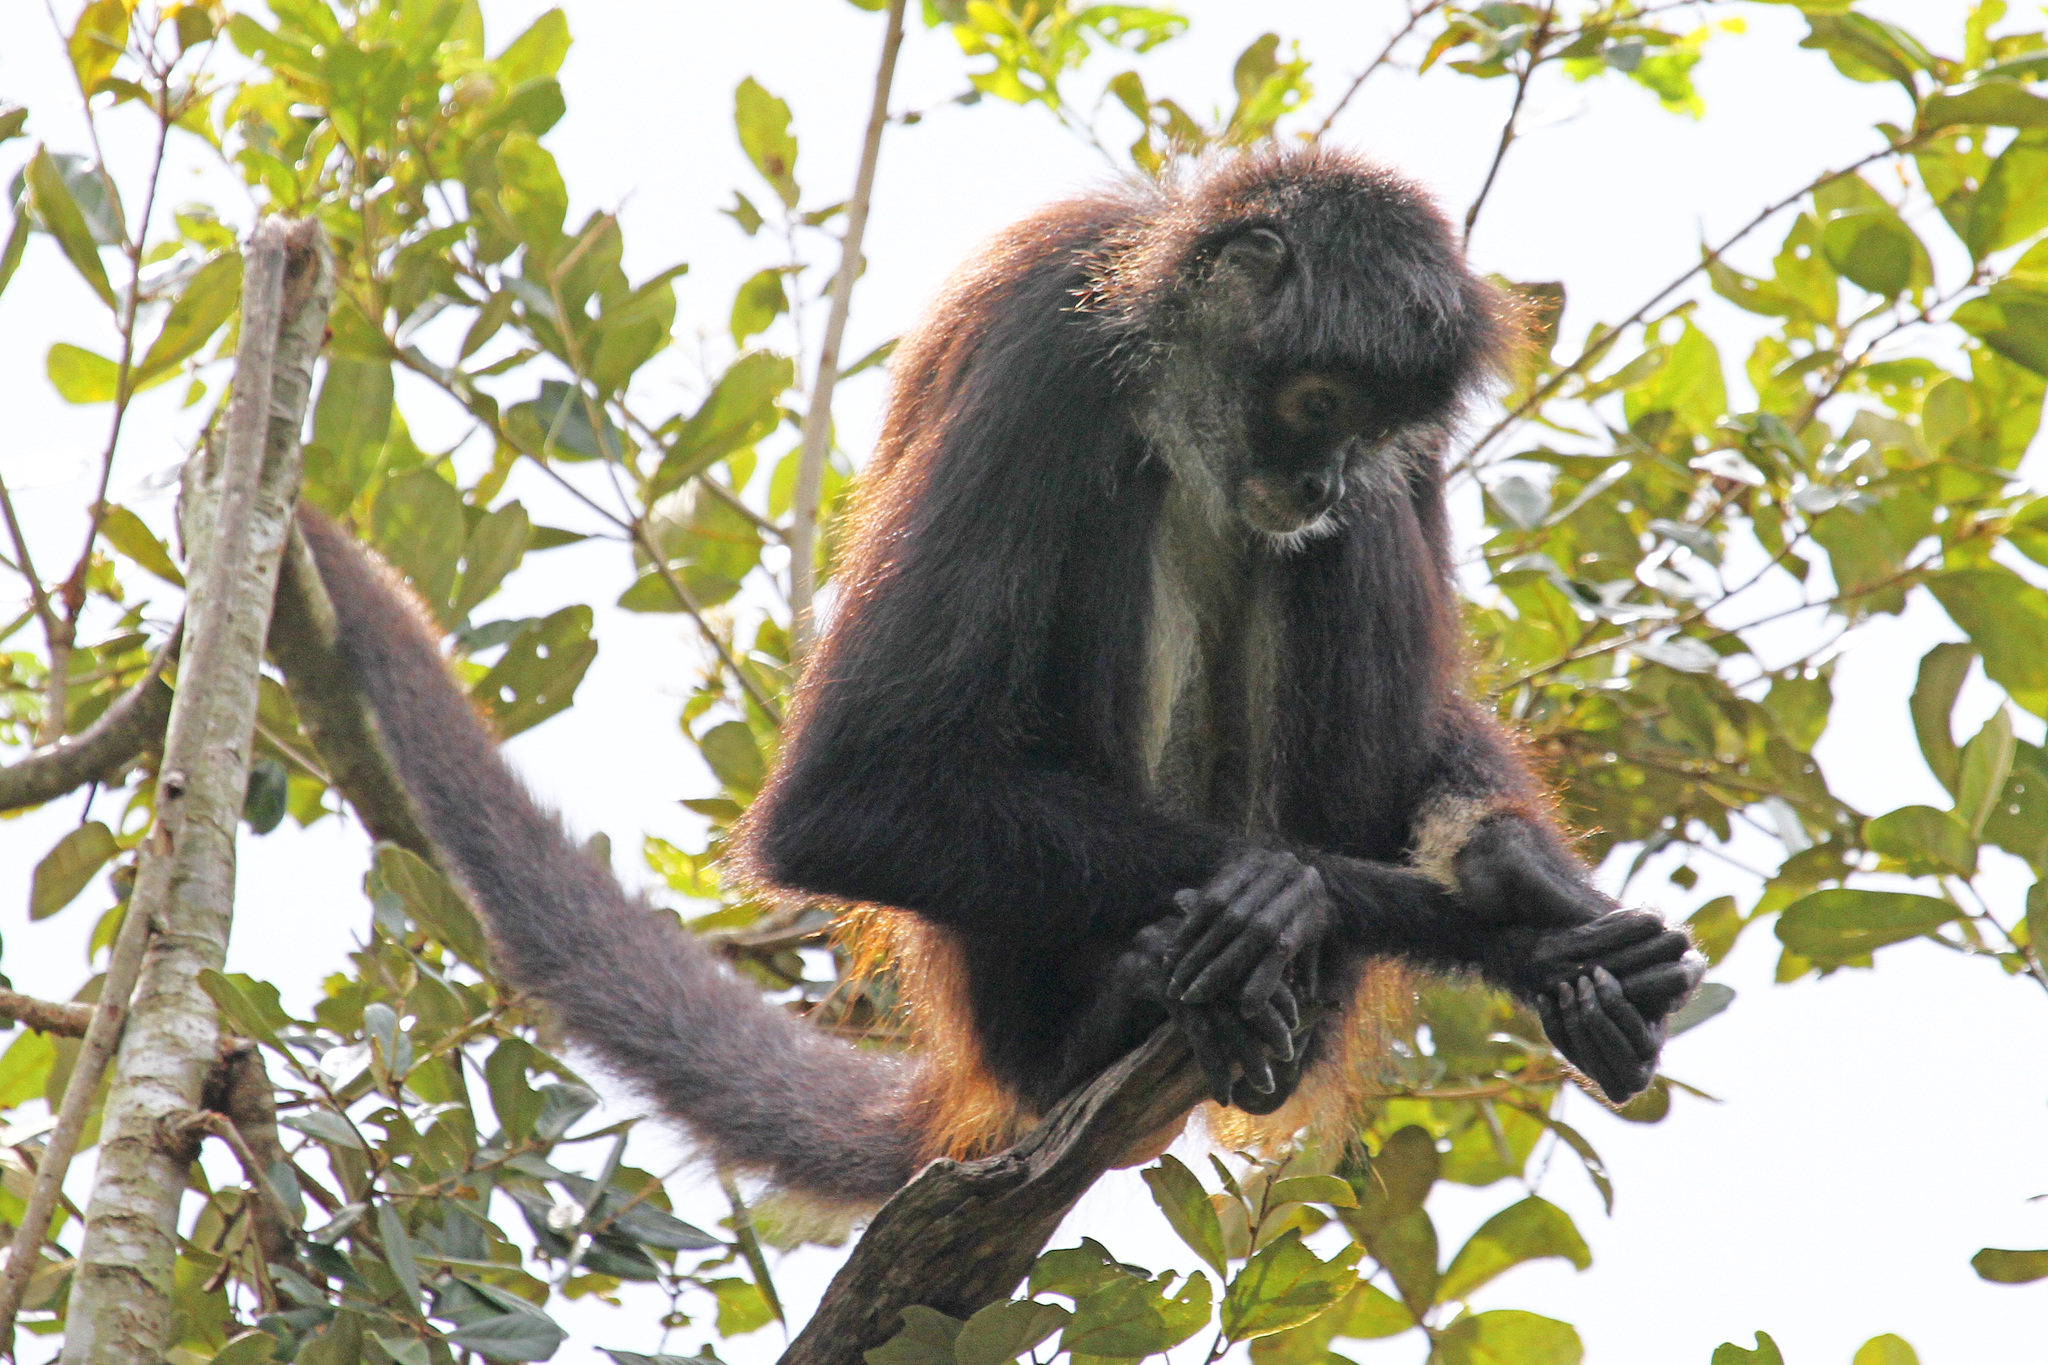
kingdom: Animalia
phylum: Chordata
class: Mammalia
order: Primates
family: Atelidae
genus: Ateles
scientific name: Ateles geoffroyi
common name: Black-handed spider monkey
